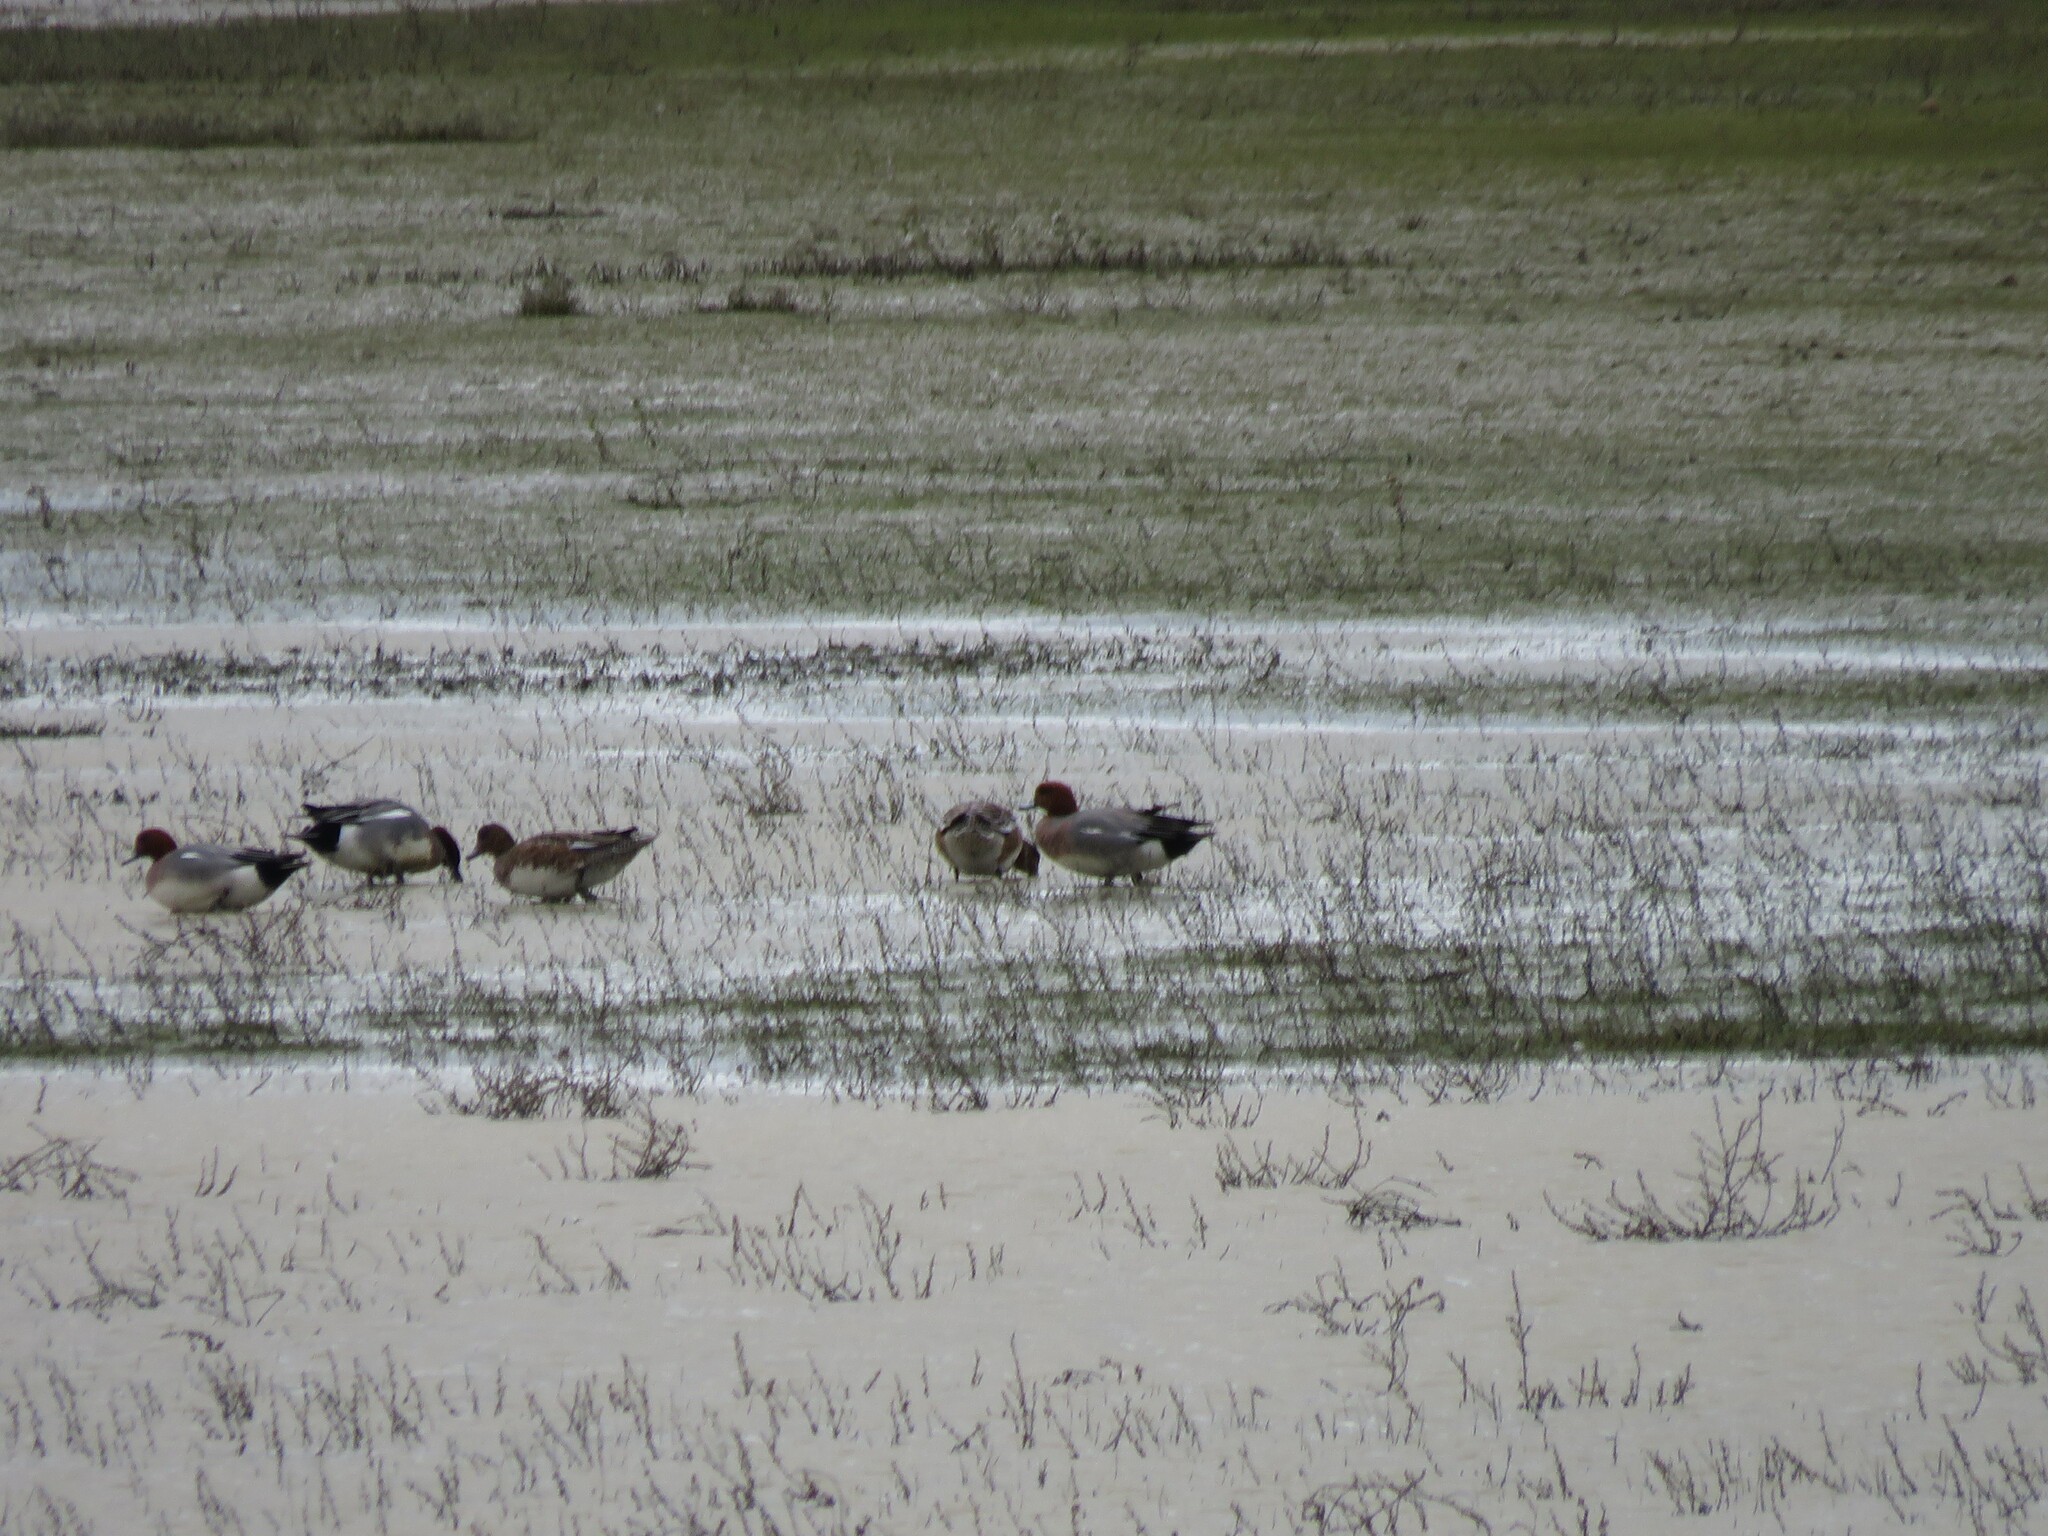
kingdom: Animalia
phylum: Chordata
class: Aves
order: Anseriformes
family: Anatidae
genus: Mareca
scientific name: Mareca penelope
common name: Eurasian wigeon
